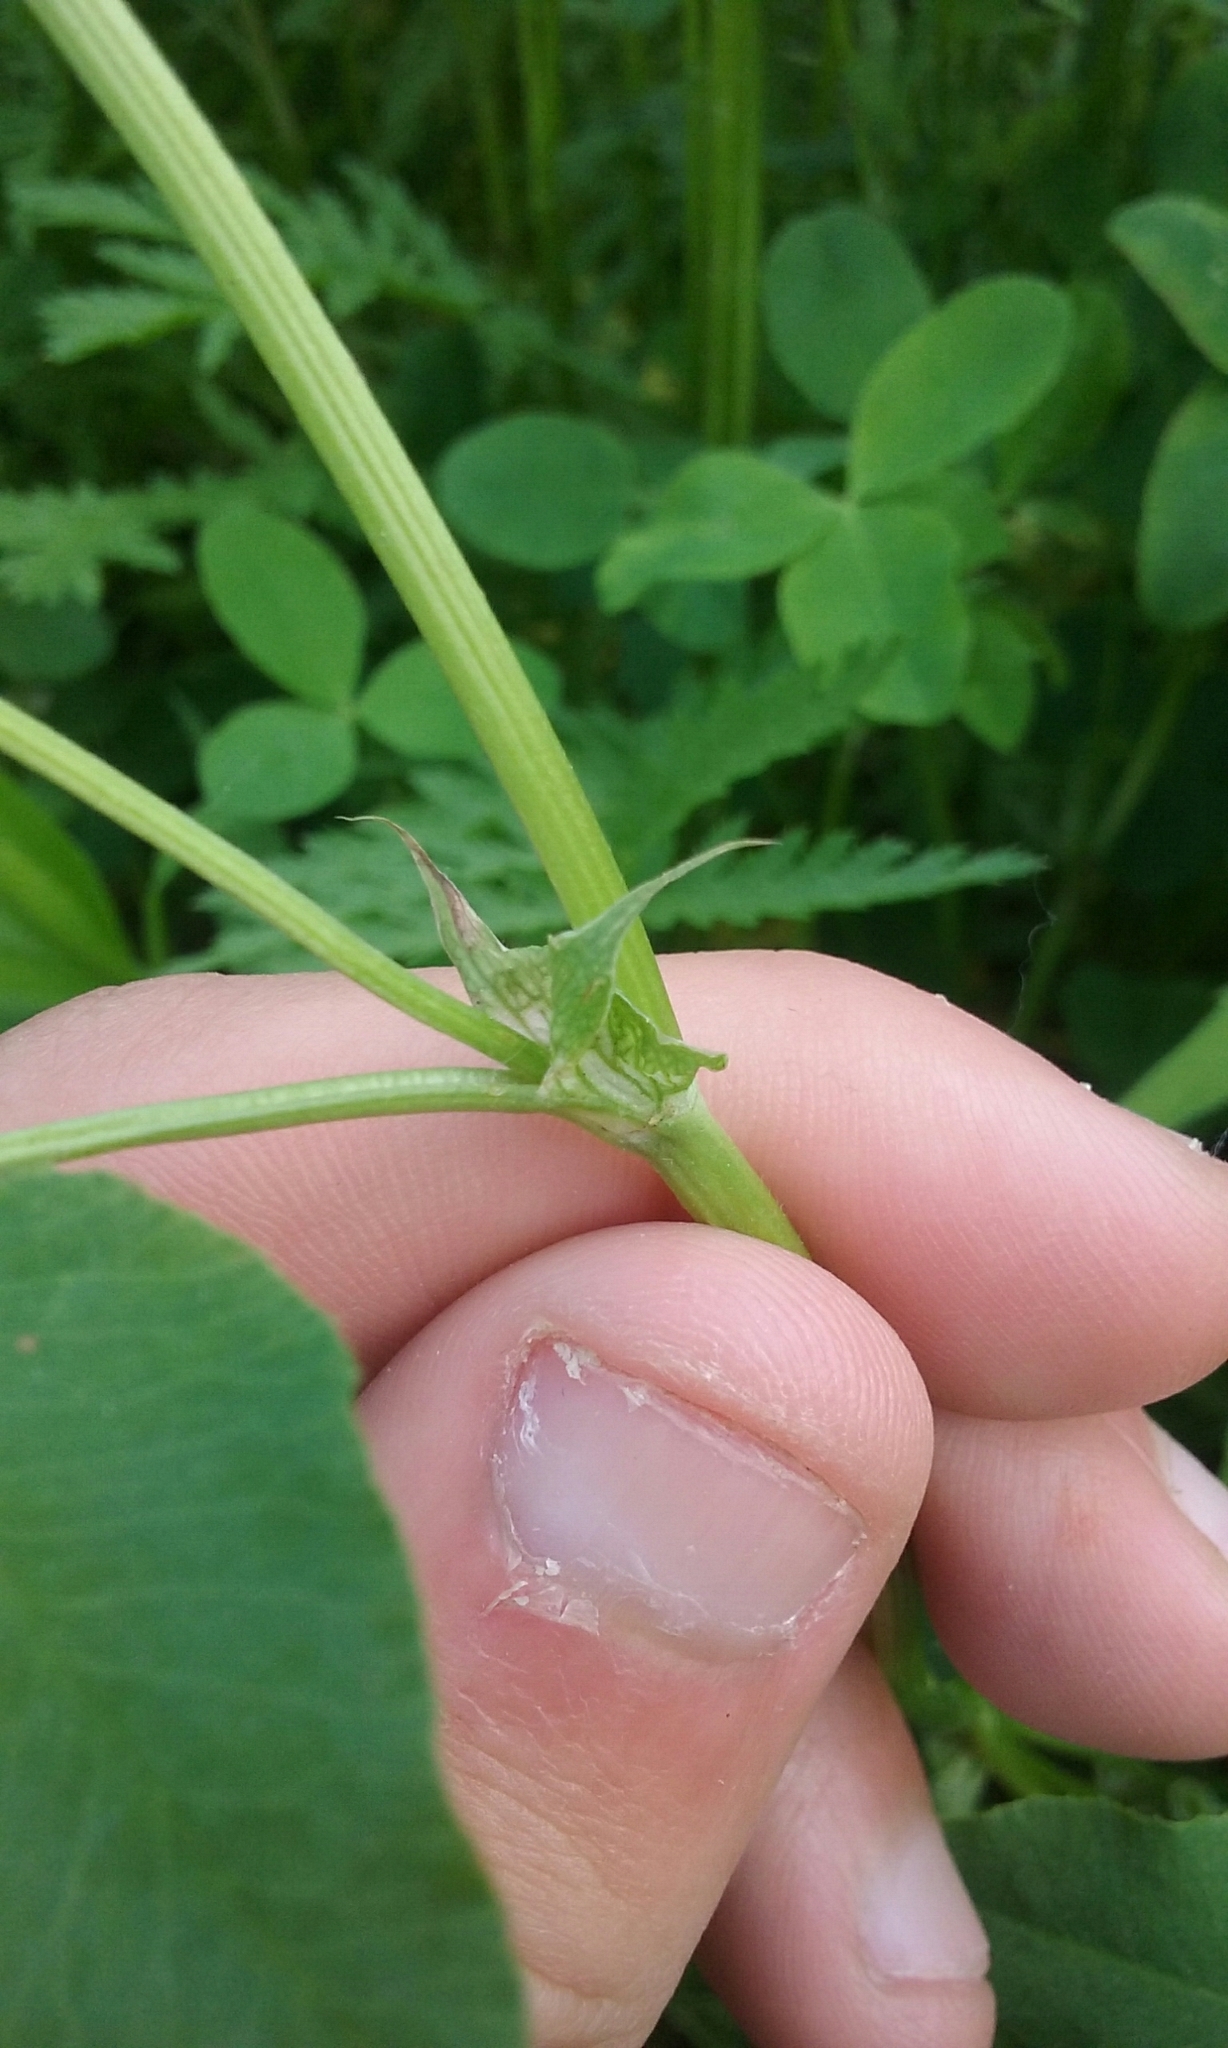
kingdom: Plantae
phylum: Tracheophyta
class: Magnoliopsida
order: Fabales
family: Fabaceae
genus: Trifolium
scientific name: Trifolium hybridum
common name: Alsike clover
